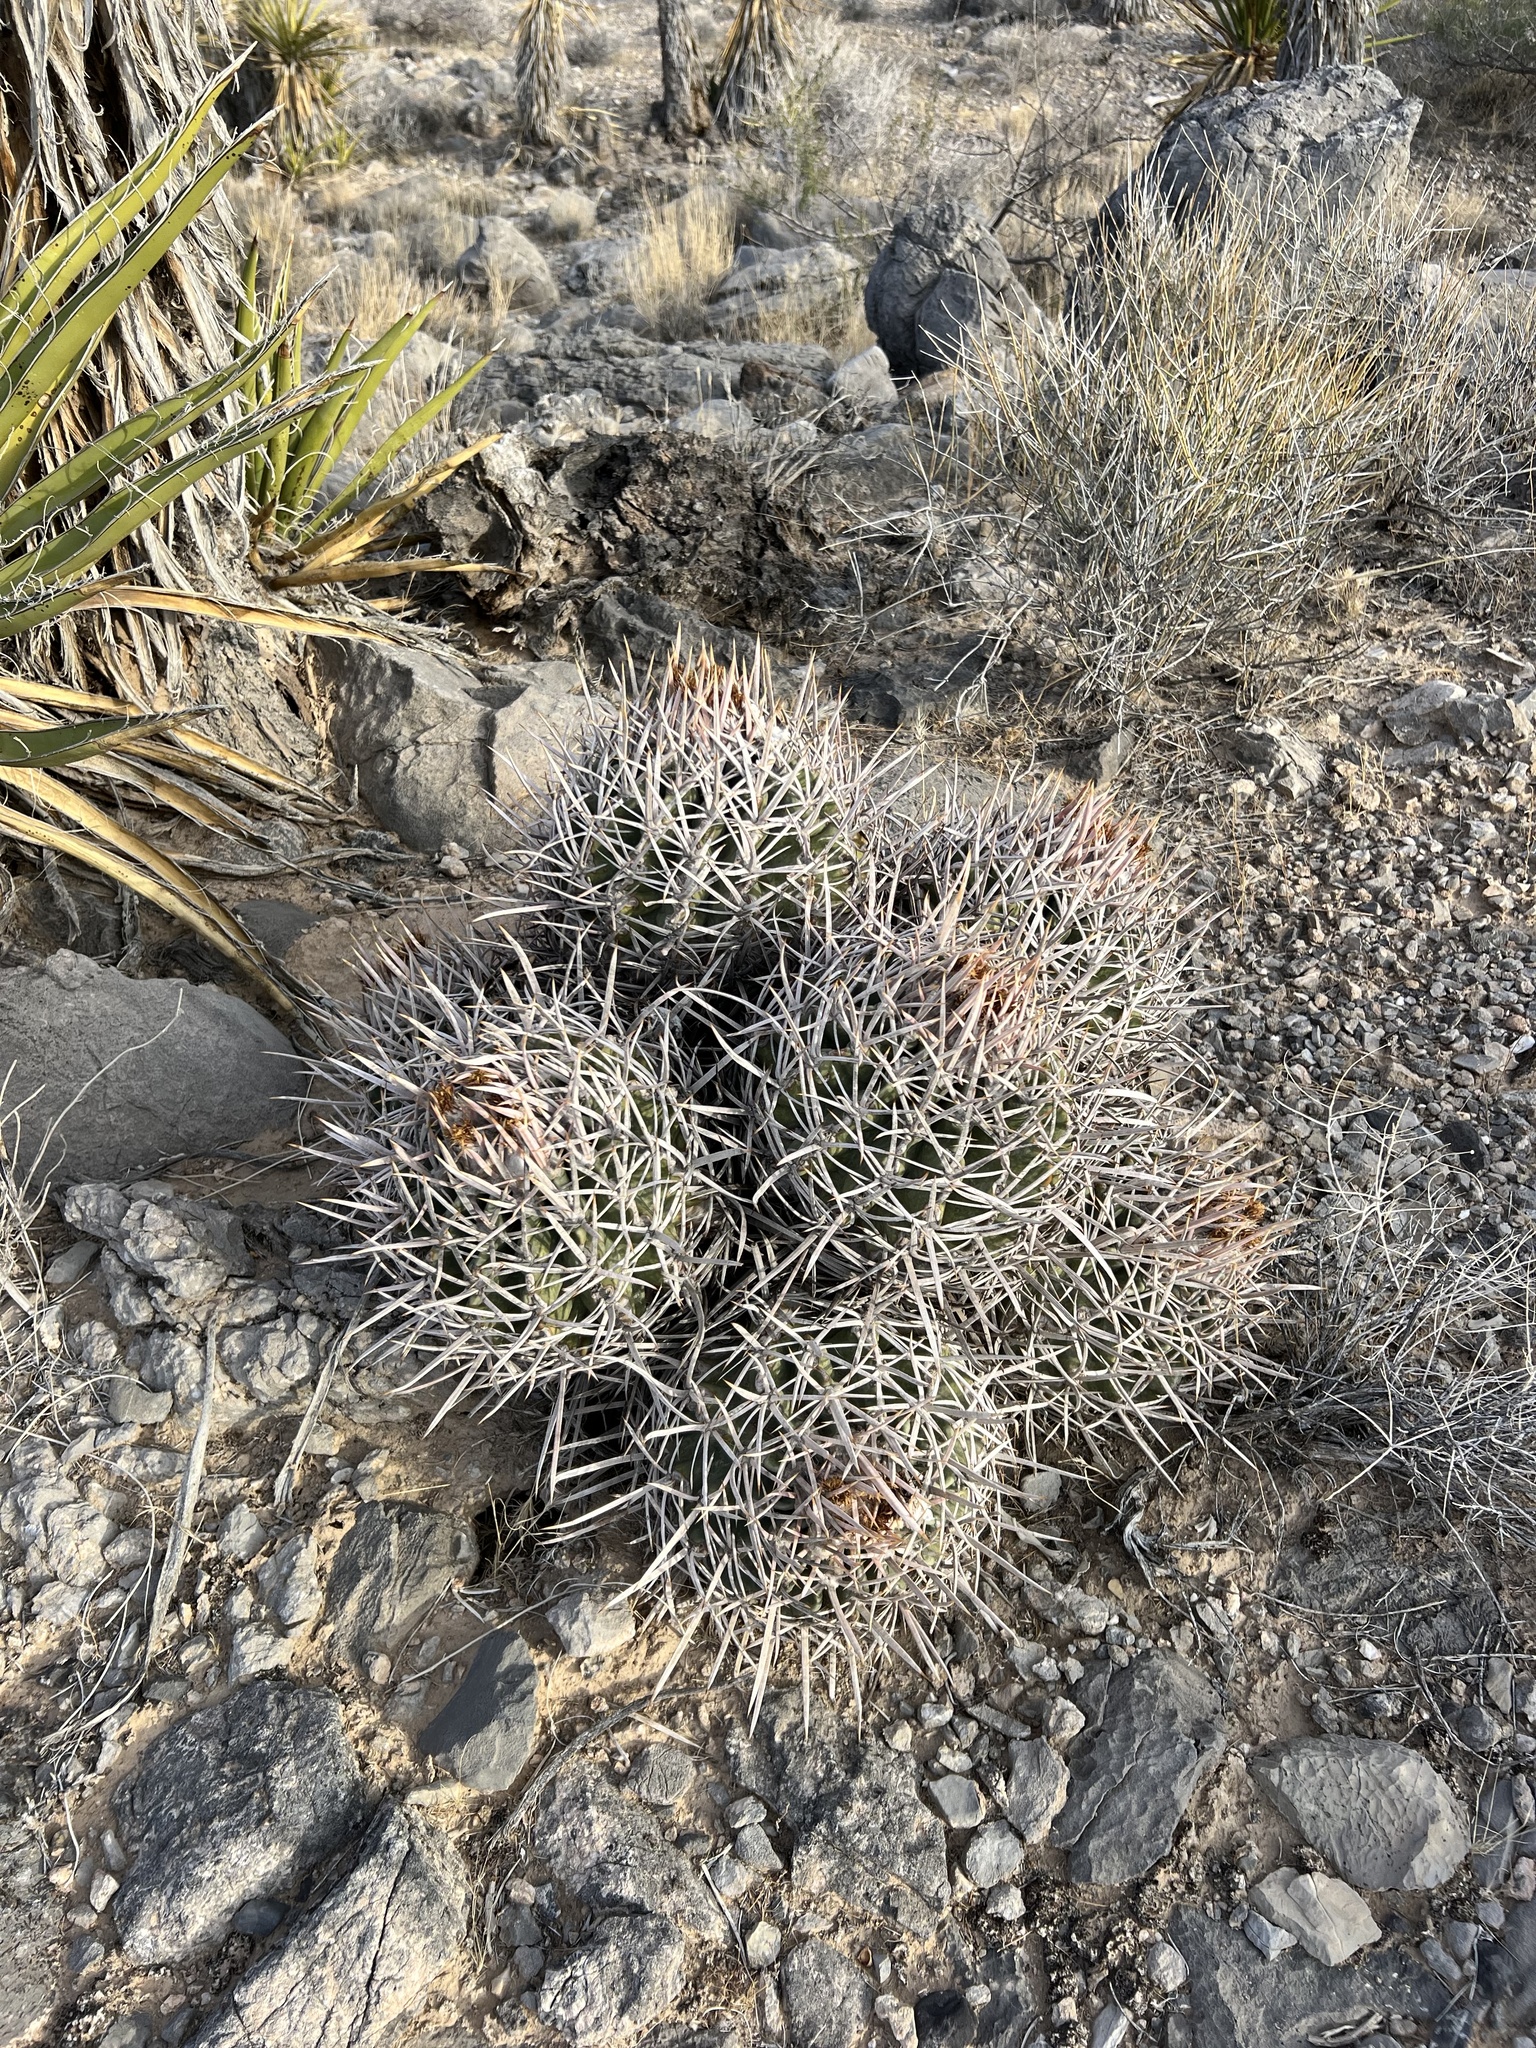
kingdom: Plantae
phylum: Tracheophyta
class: Magnoliopsida
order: Caryophyllales
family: Cactaceae
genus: Echinocactus
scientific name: Echinocactus polycephalus
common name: Cottontop cactus
